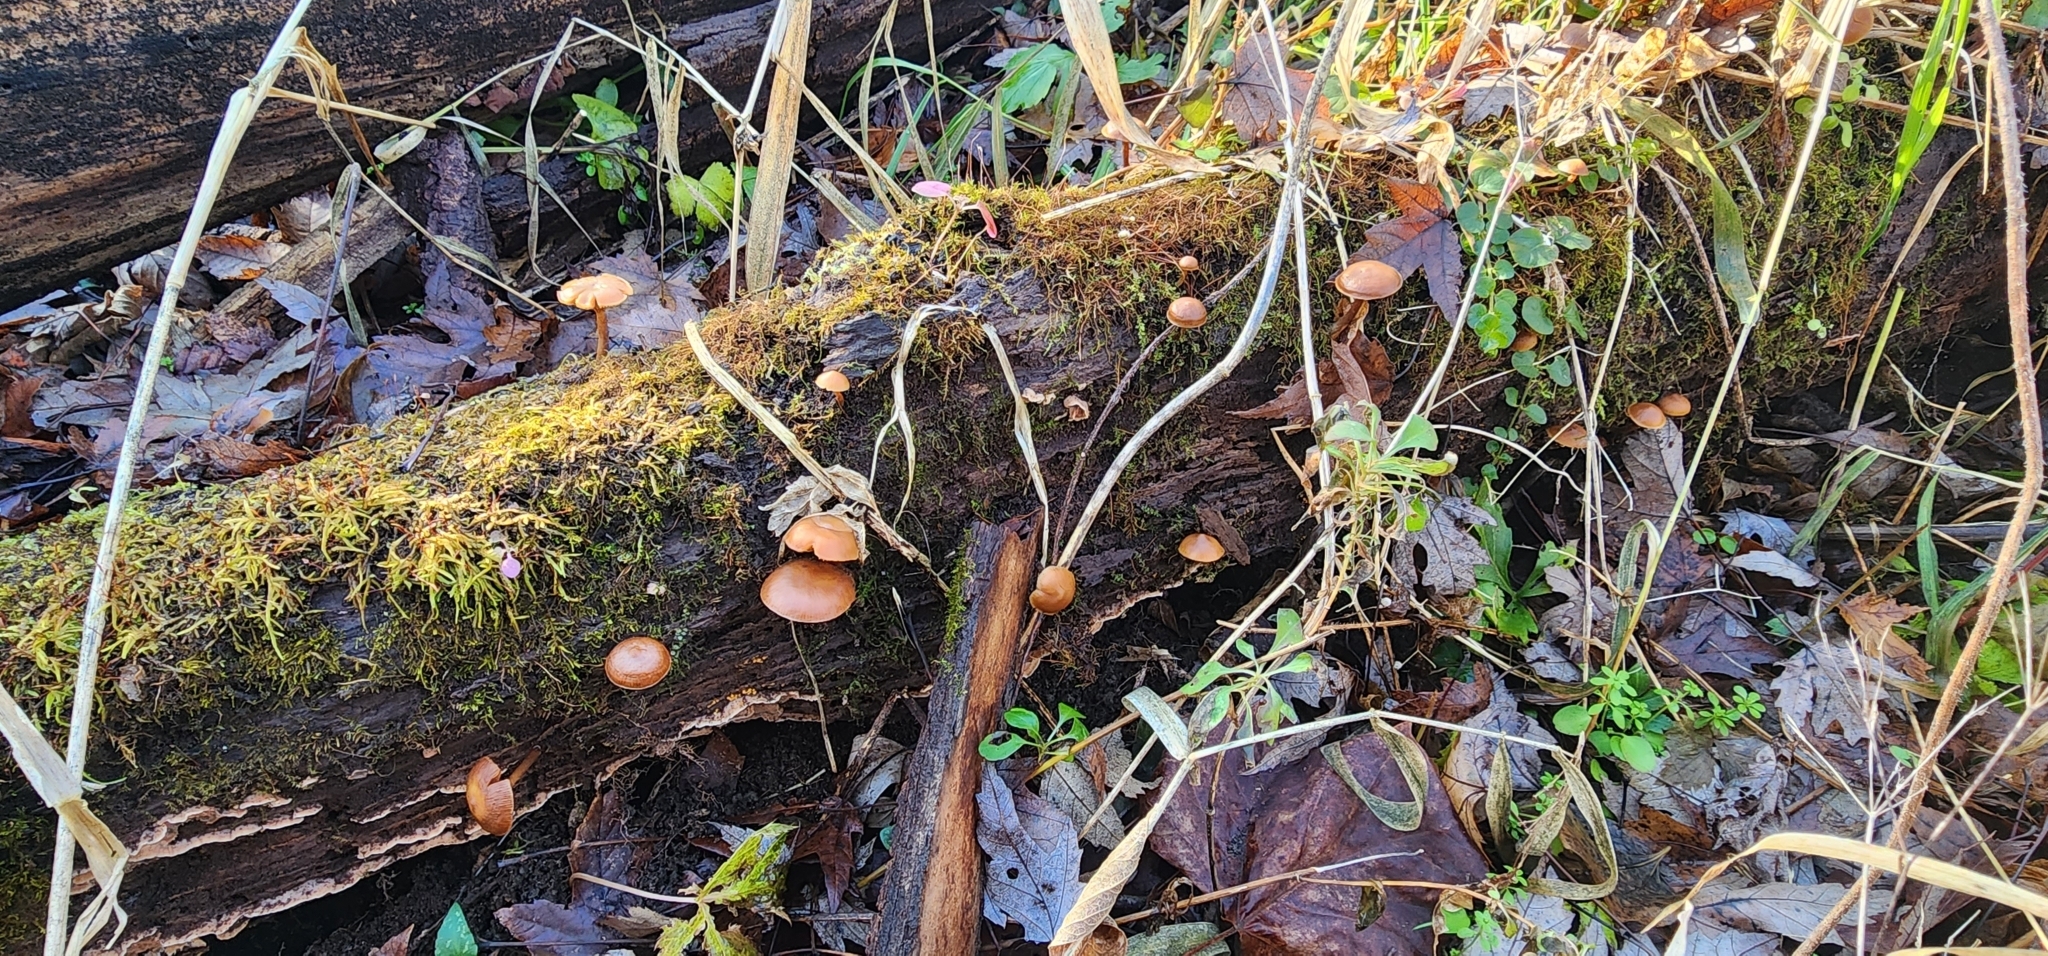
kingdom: Fungi
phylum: Basidiomycota
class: Agaricomycetes
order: Agaricales
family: Hymenogastraceae
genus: Galerina
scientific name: Galerina marginata
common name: Funeral bell
